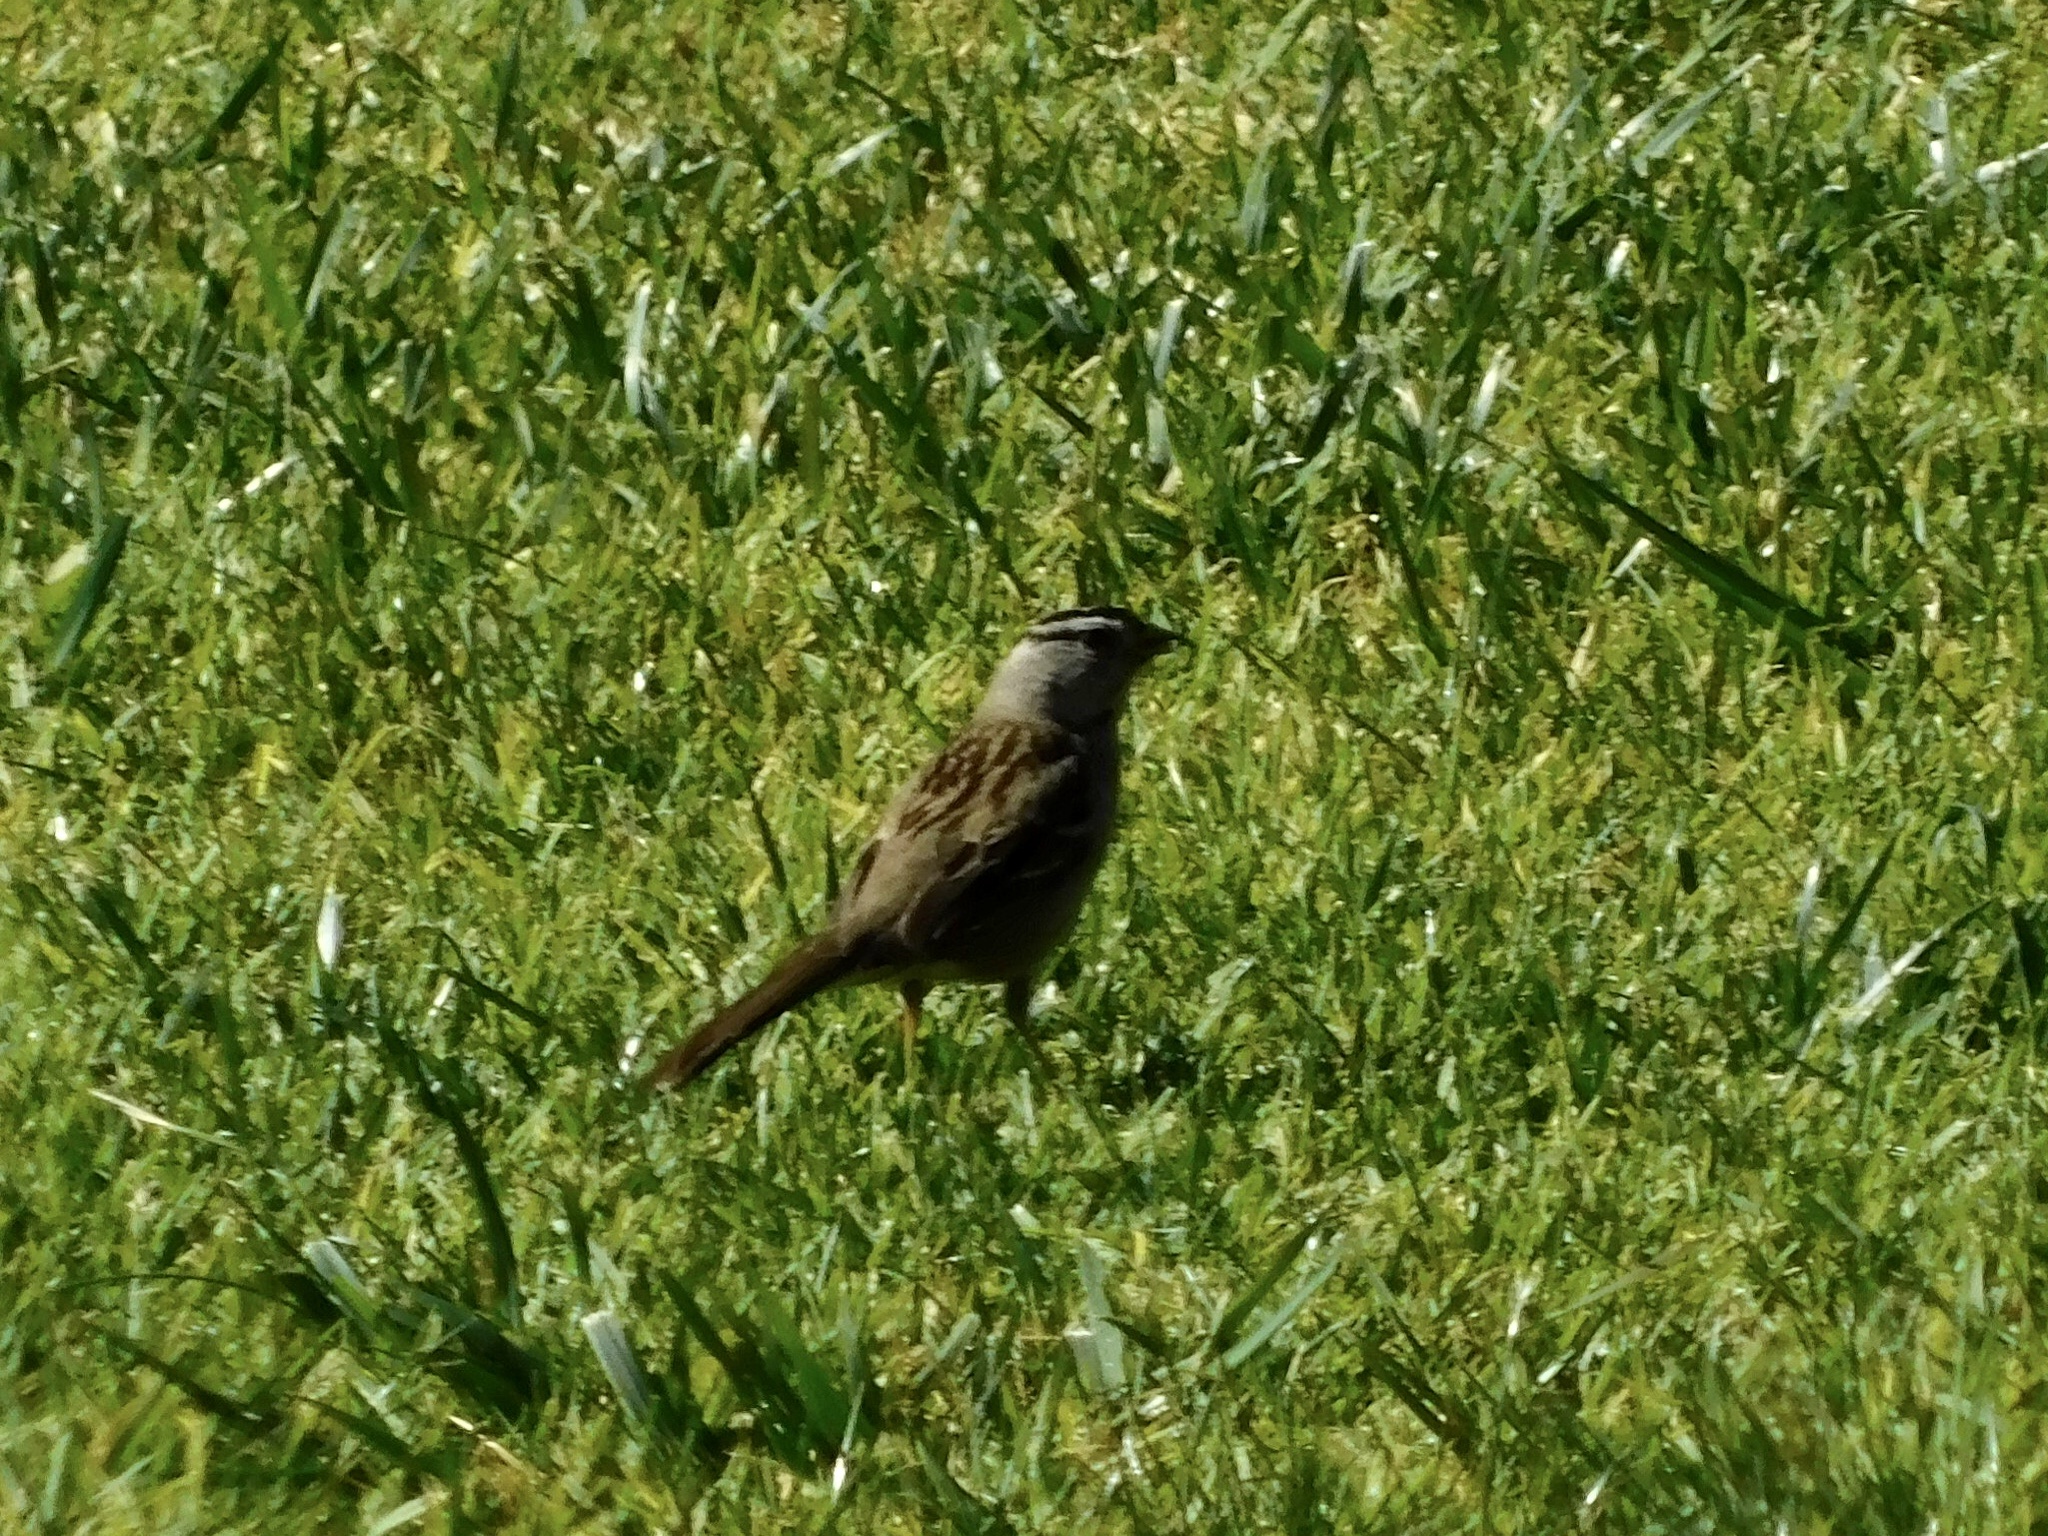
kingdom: Animalia
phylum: Chordata
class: Aves
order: Passeriformes
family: Passerellidae
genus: Zonotrichia
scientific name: Zonotrichia leucophrys
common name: White-crowned sparrow
